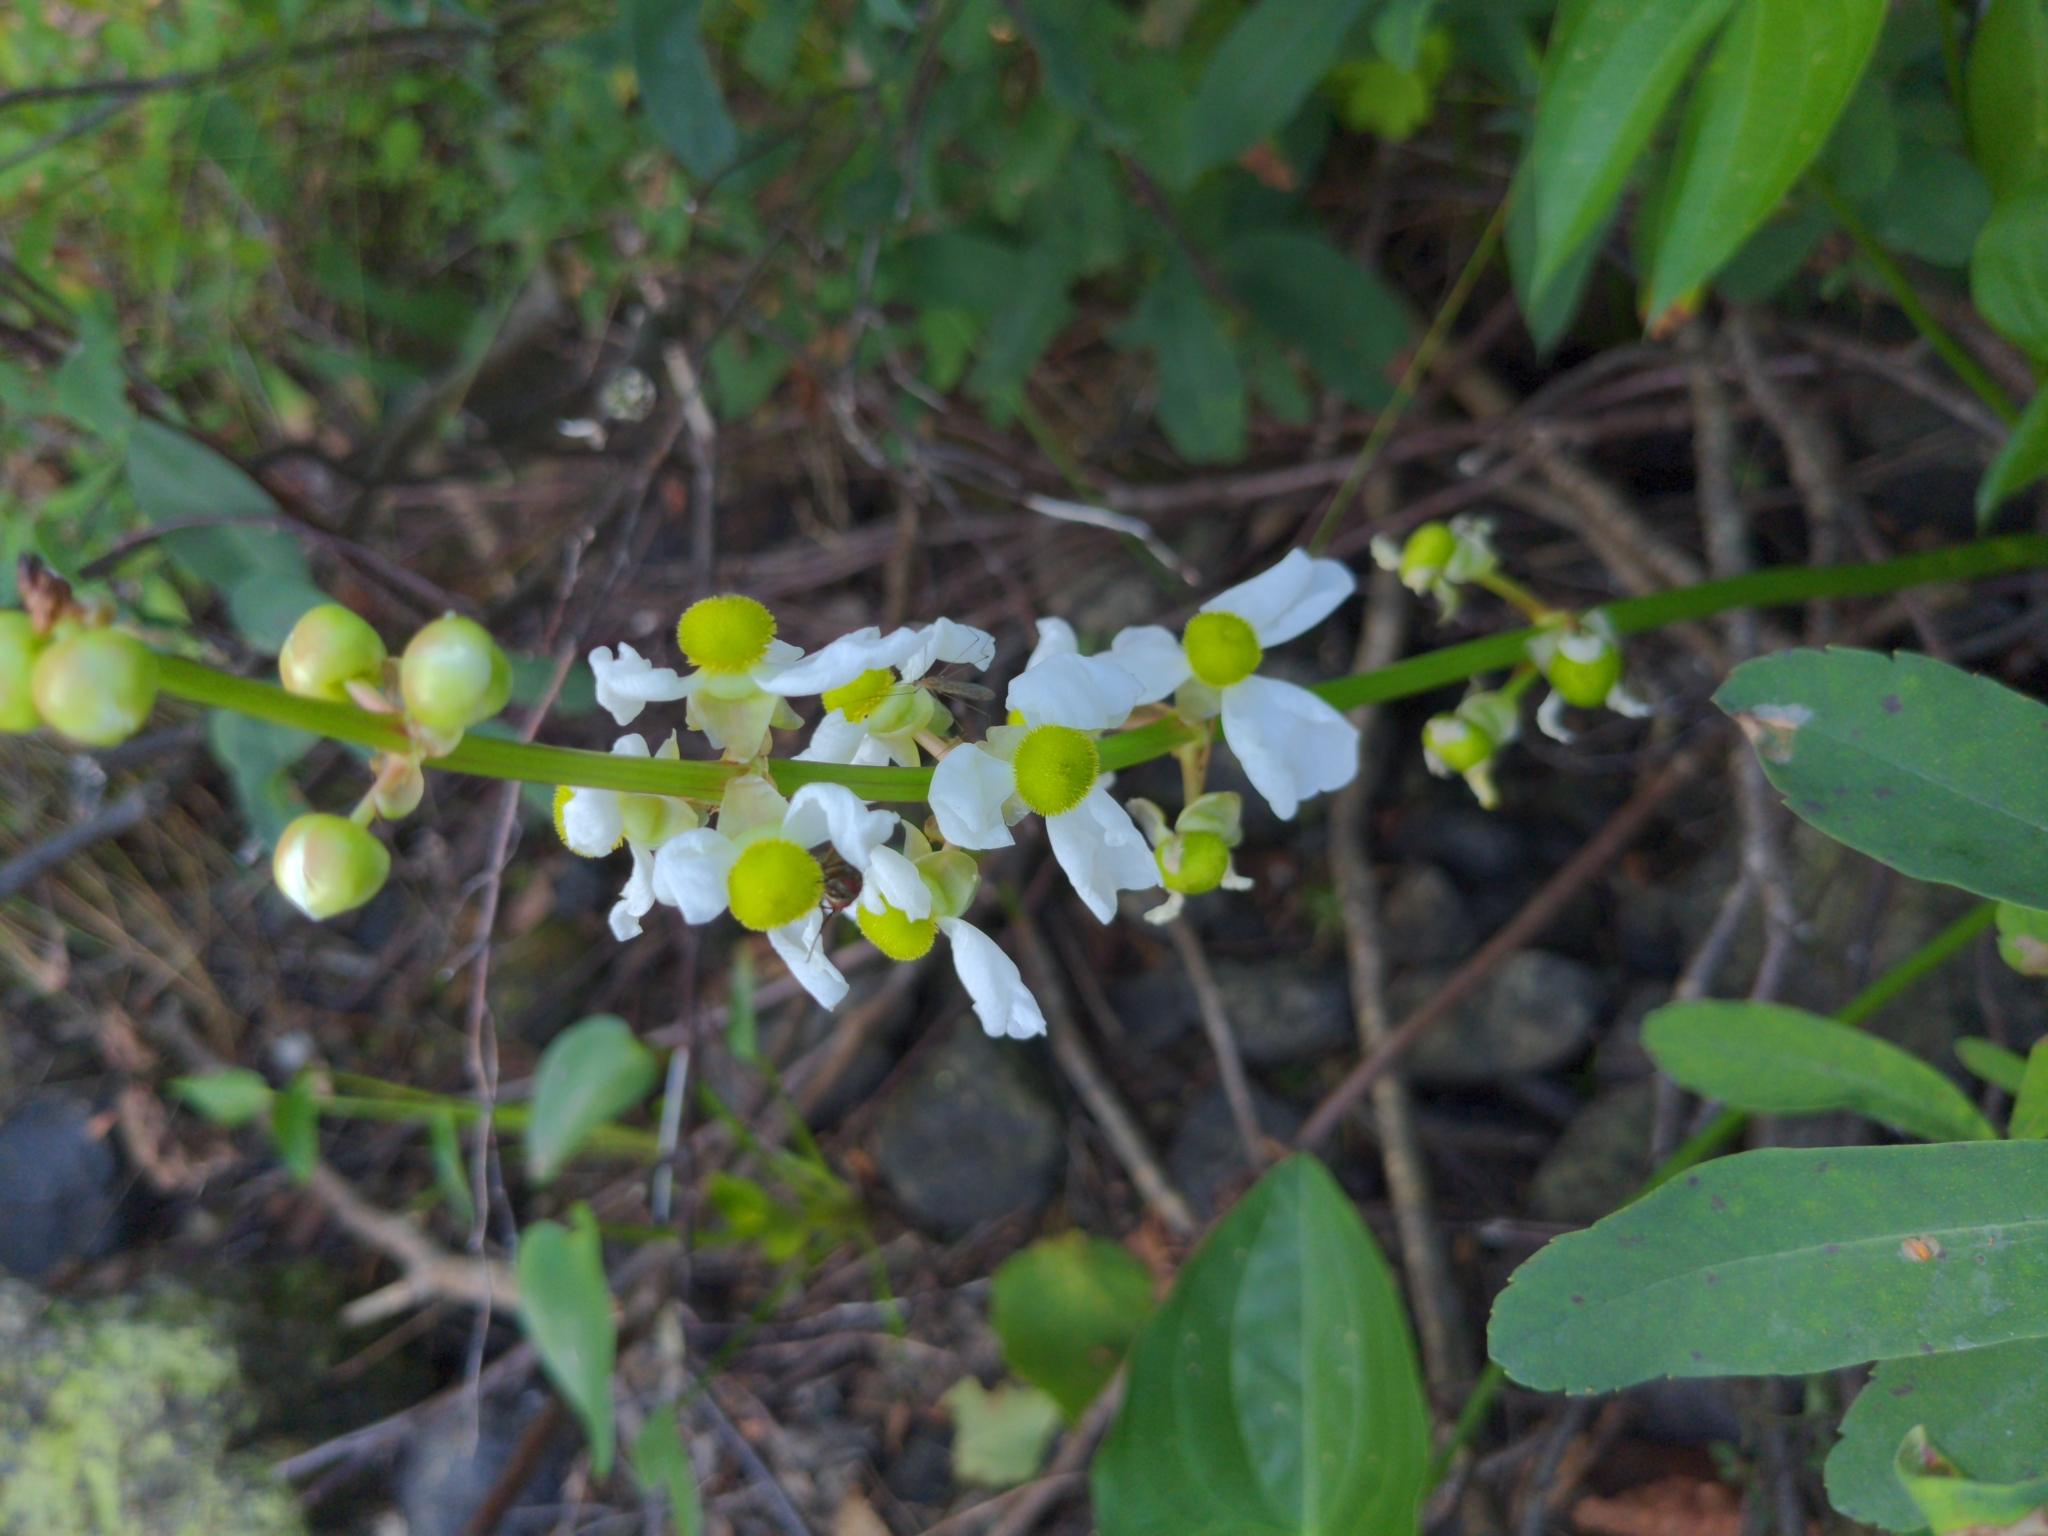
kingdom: Plantae
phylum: Tracheophyta
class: Liliopsida
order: Alismatales
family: Alismataceae
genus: Sagittaria
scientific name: Sagittaria latifolia
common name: Duck-potato
